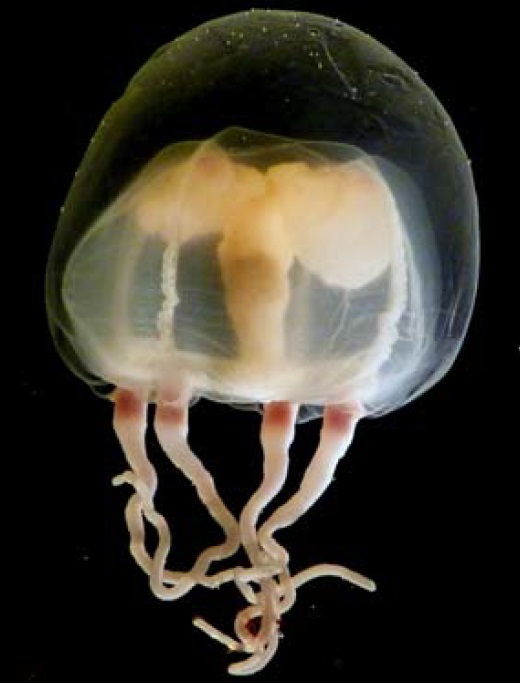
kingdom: Animalia
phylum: Cnidaria
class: Hydrozoa
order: Anthoathecata
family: Halimedusidae
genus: Tiaricodon
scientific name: Tiaricodon coeruleus
